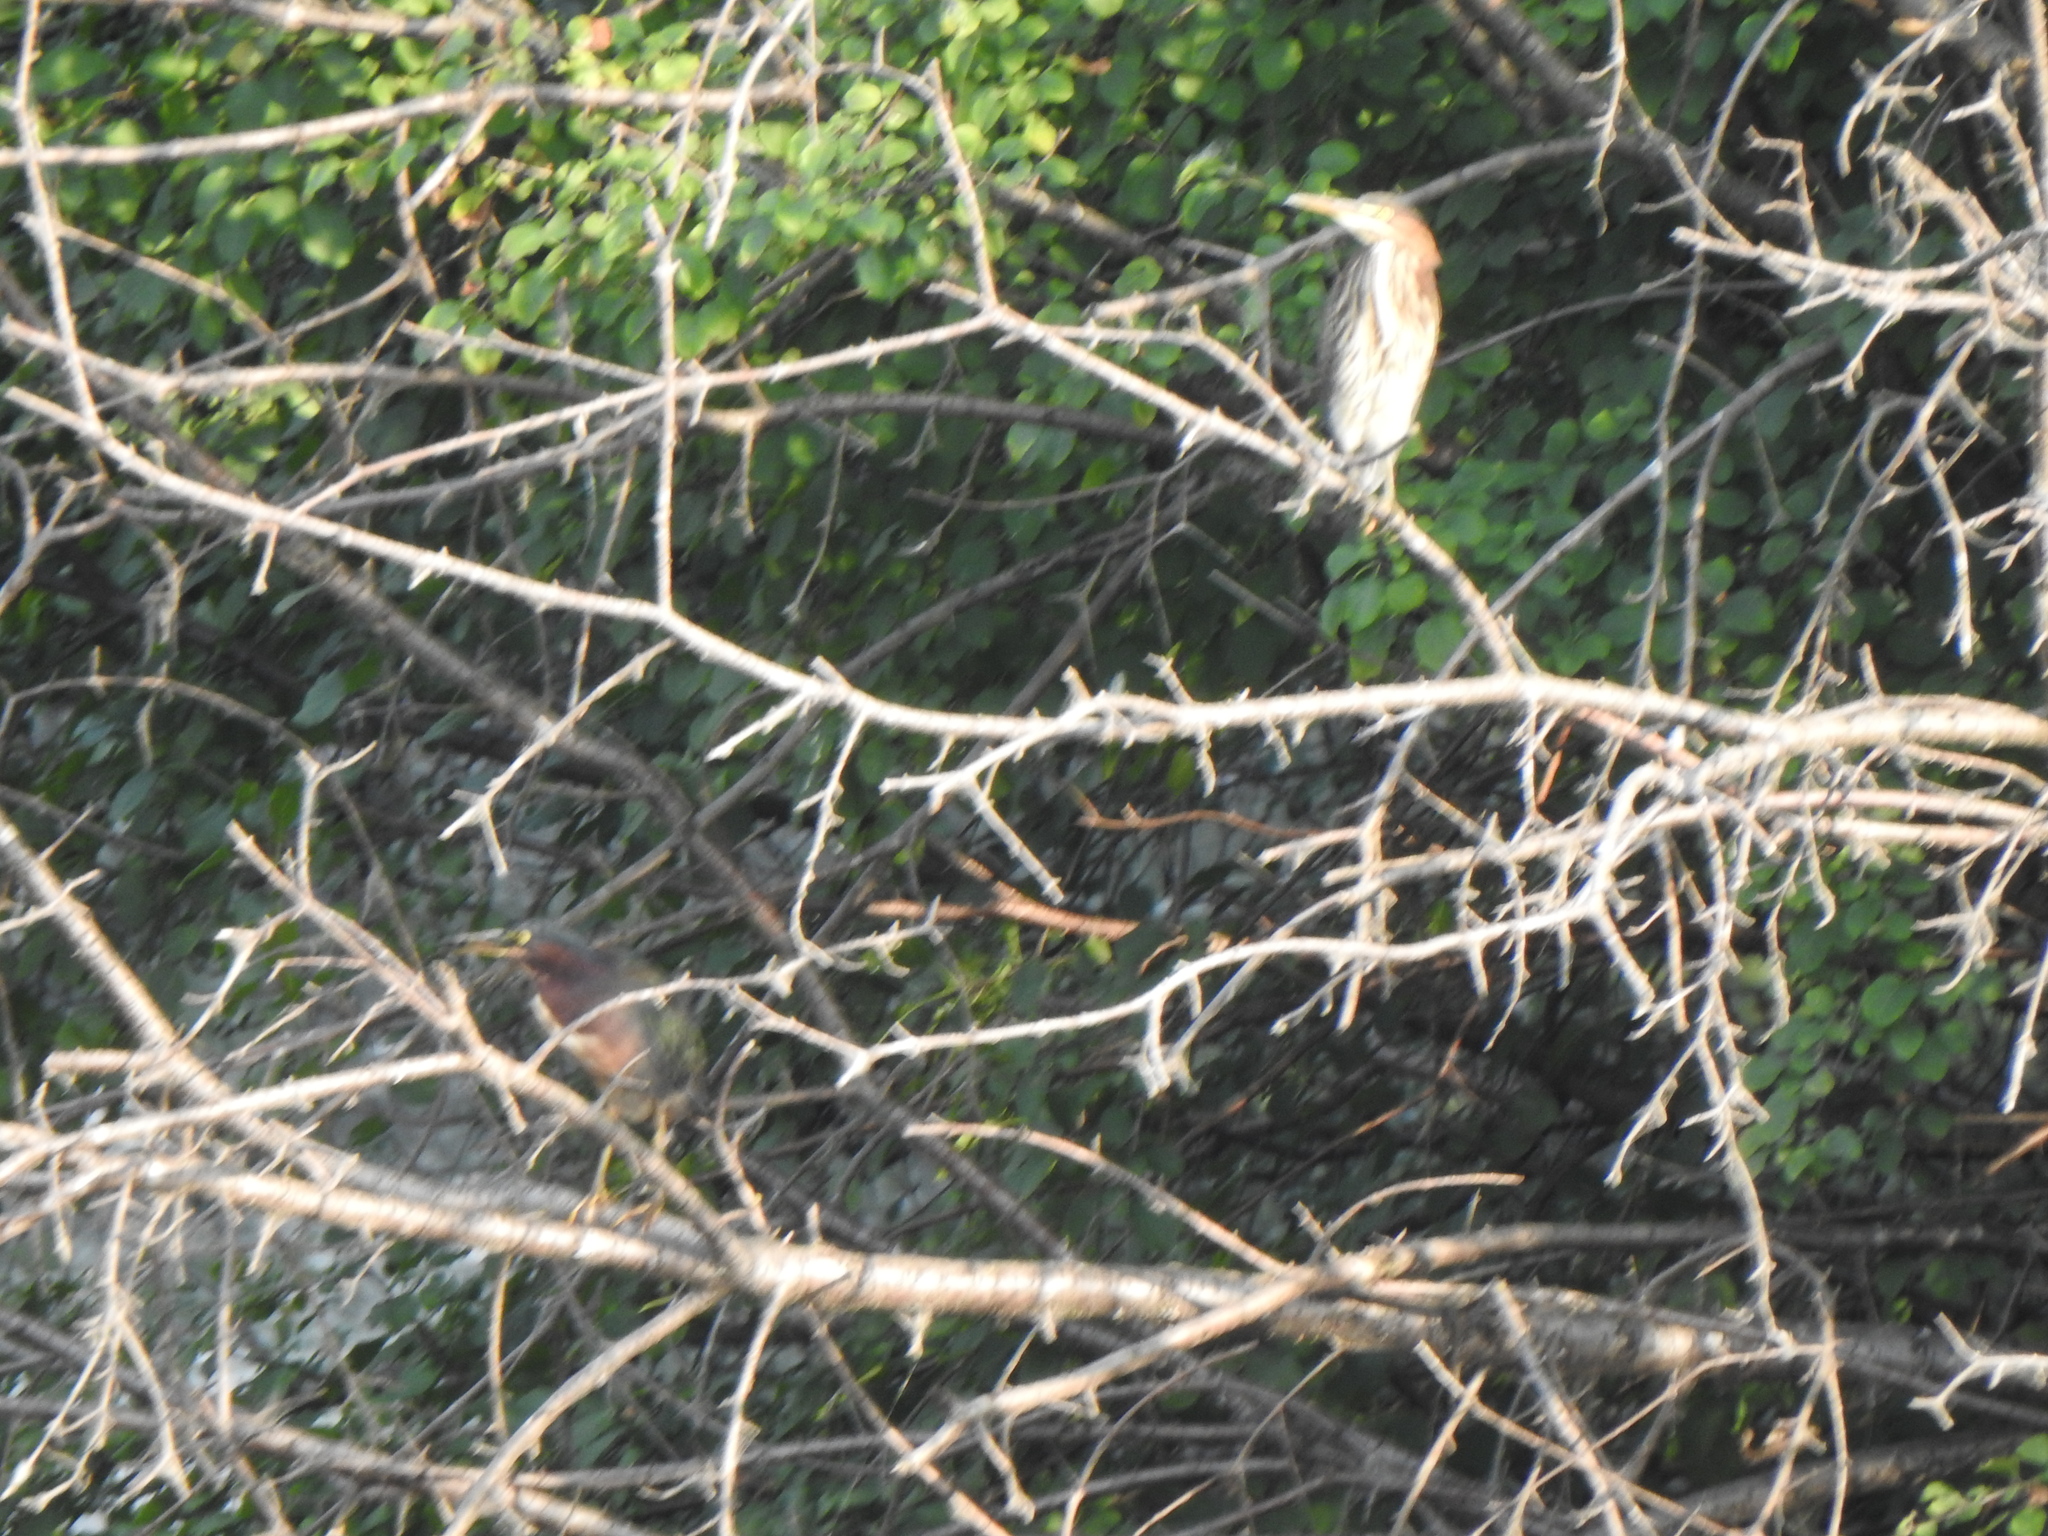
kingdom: Animalia
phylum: Chordata
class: Aves
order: Pelecaniformes
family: Ardeidae
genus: Butorides
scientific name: Butorides virescens
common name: Green heron
